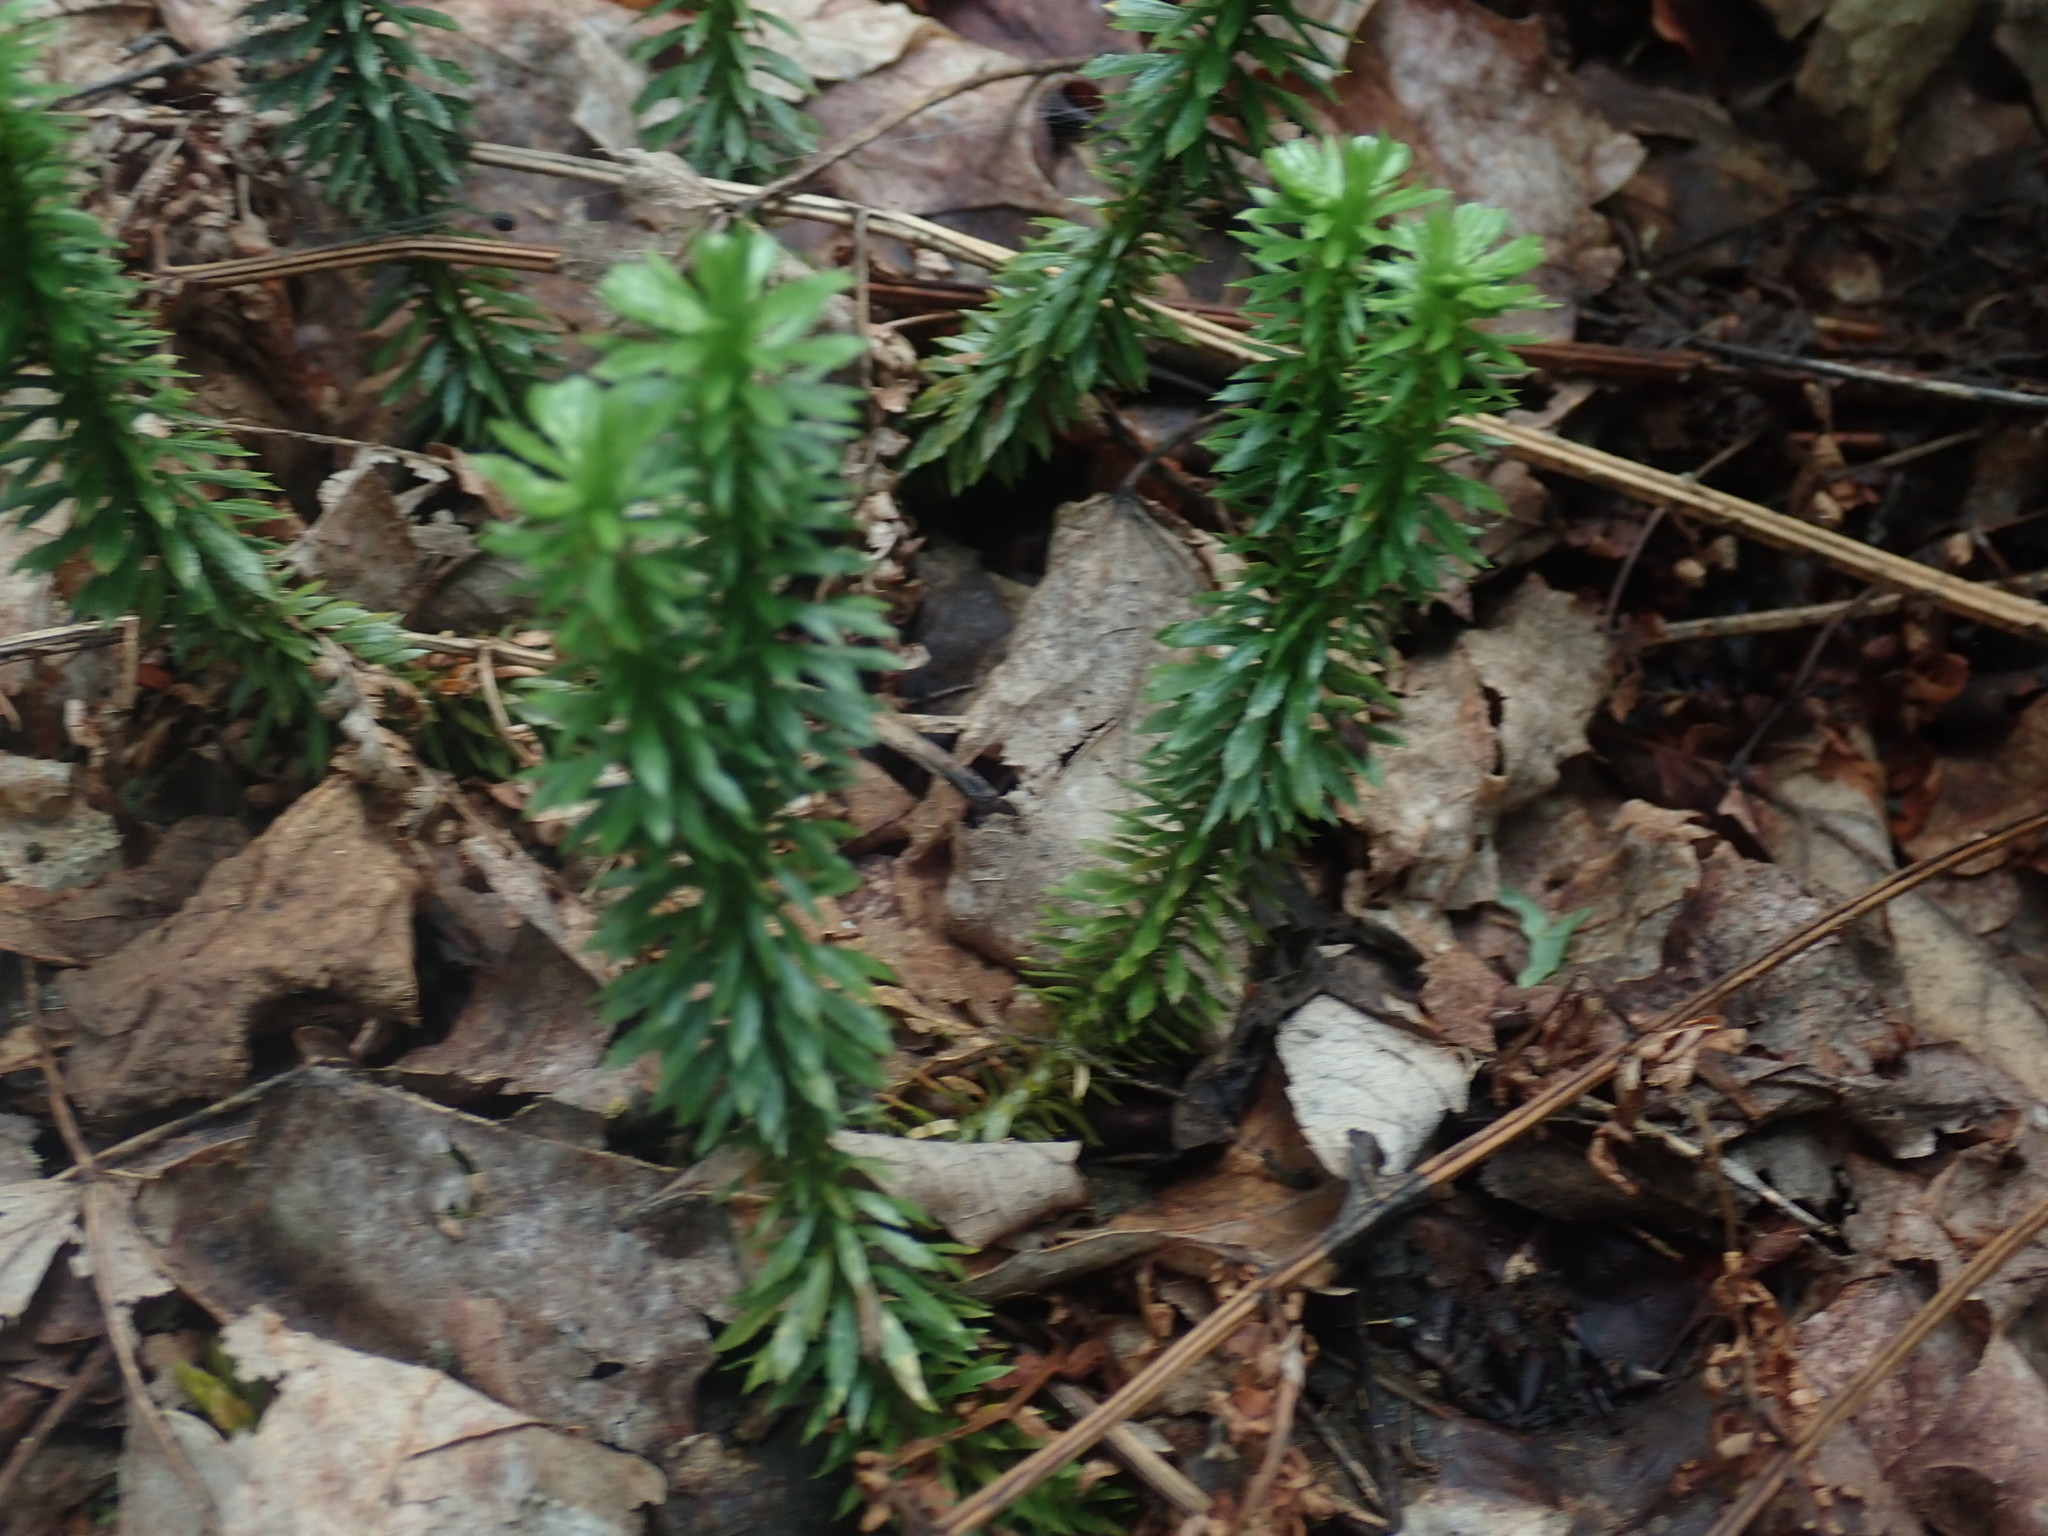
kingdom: Plantae
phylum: Tracheophyta
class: Lycopodiopsida
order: Lycopodiales
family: Lycopodiaceae
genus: Huperzia
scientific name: Huperzia lucidula
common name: Shining clubmoss
